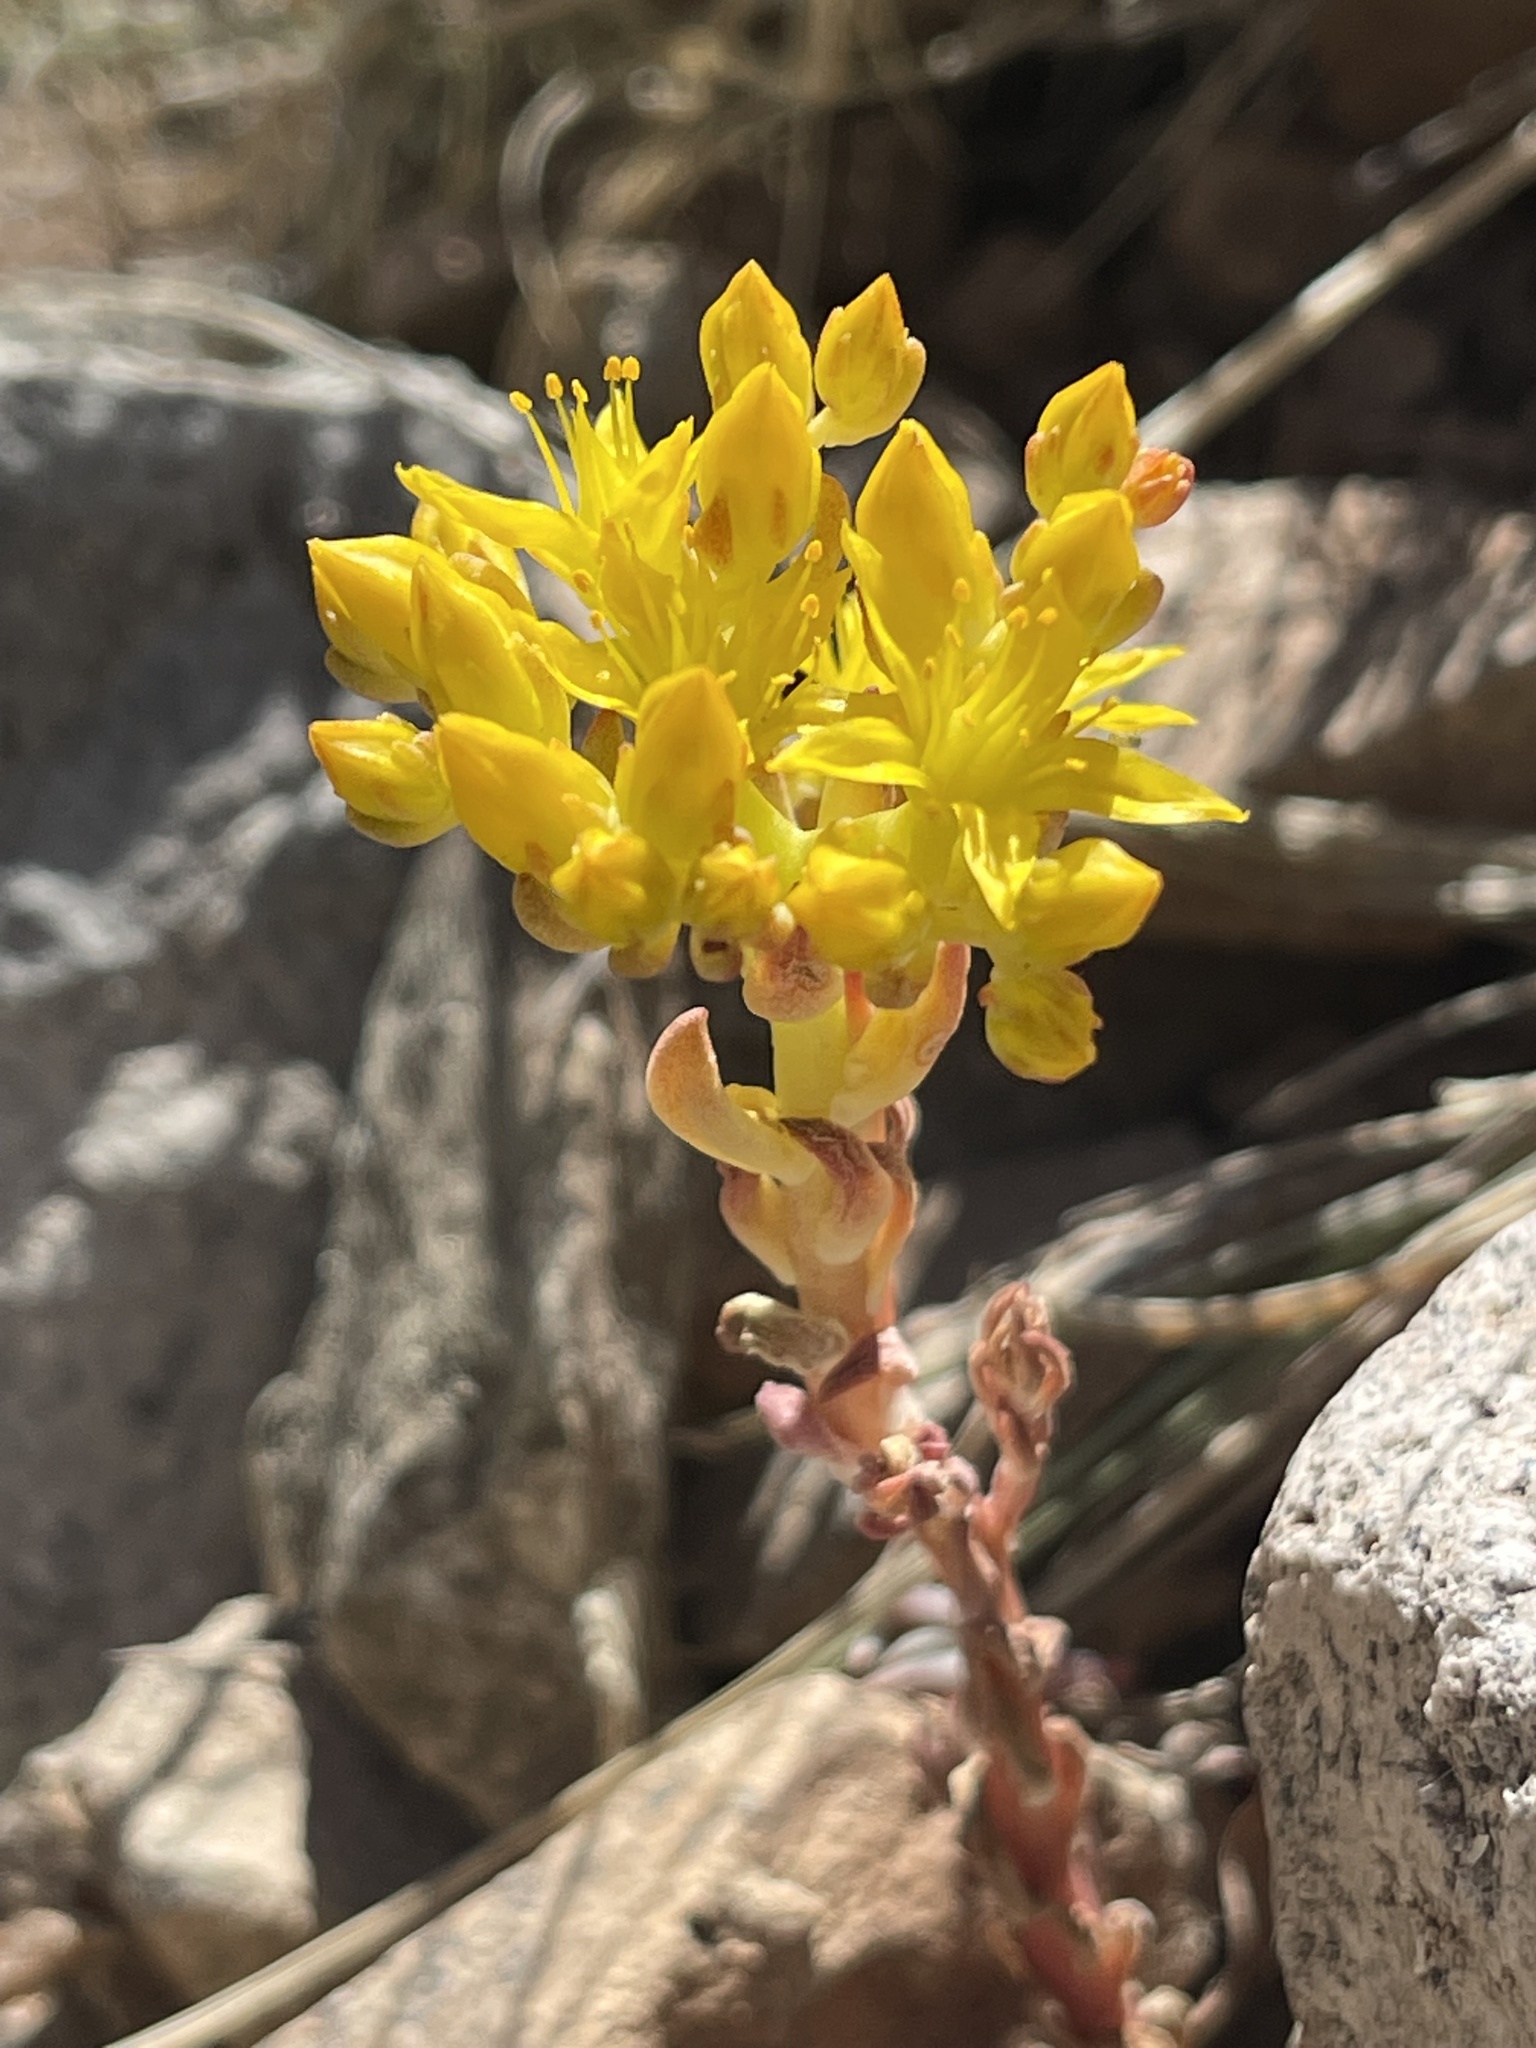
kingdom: Plantae
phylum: Tracheophyta
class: Magnoliopsida
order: Saxifragales
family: Crassulaceae
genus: Sedum
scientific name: Sedum lanceolatum
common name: Common stonecrop
